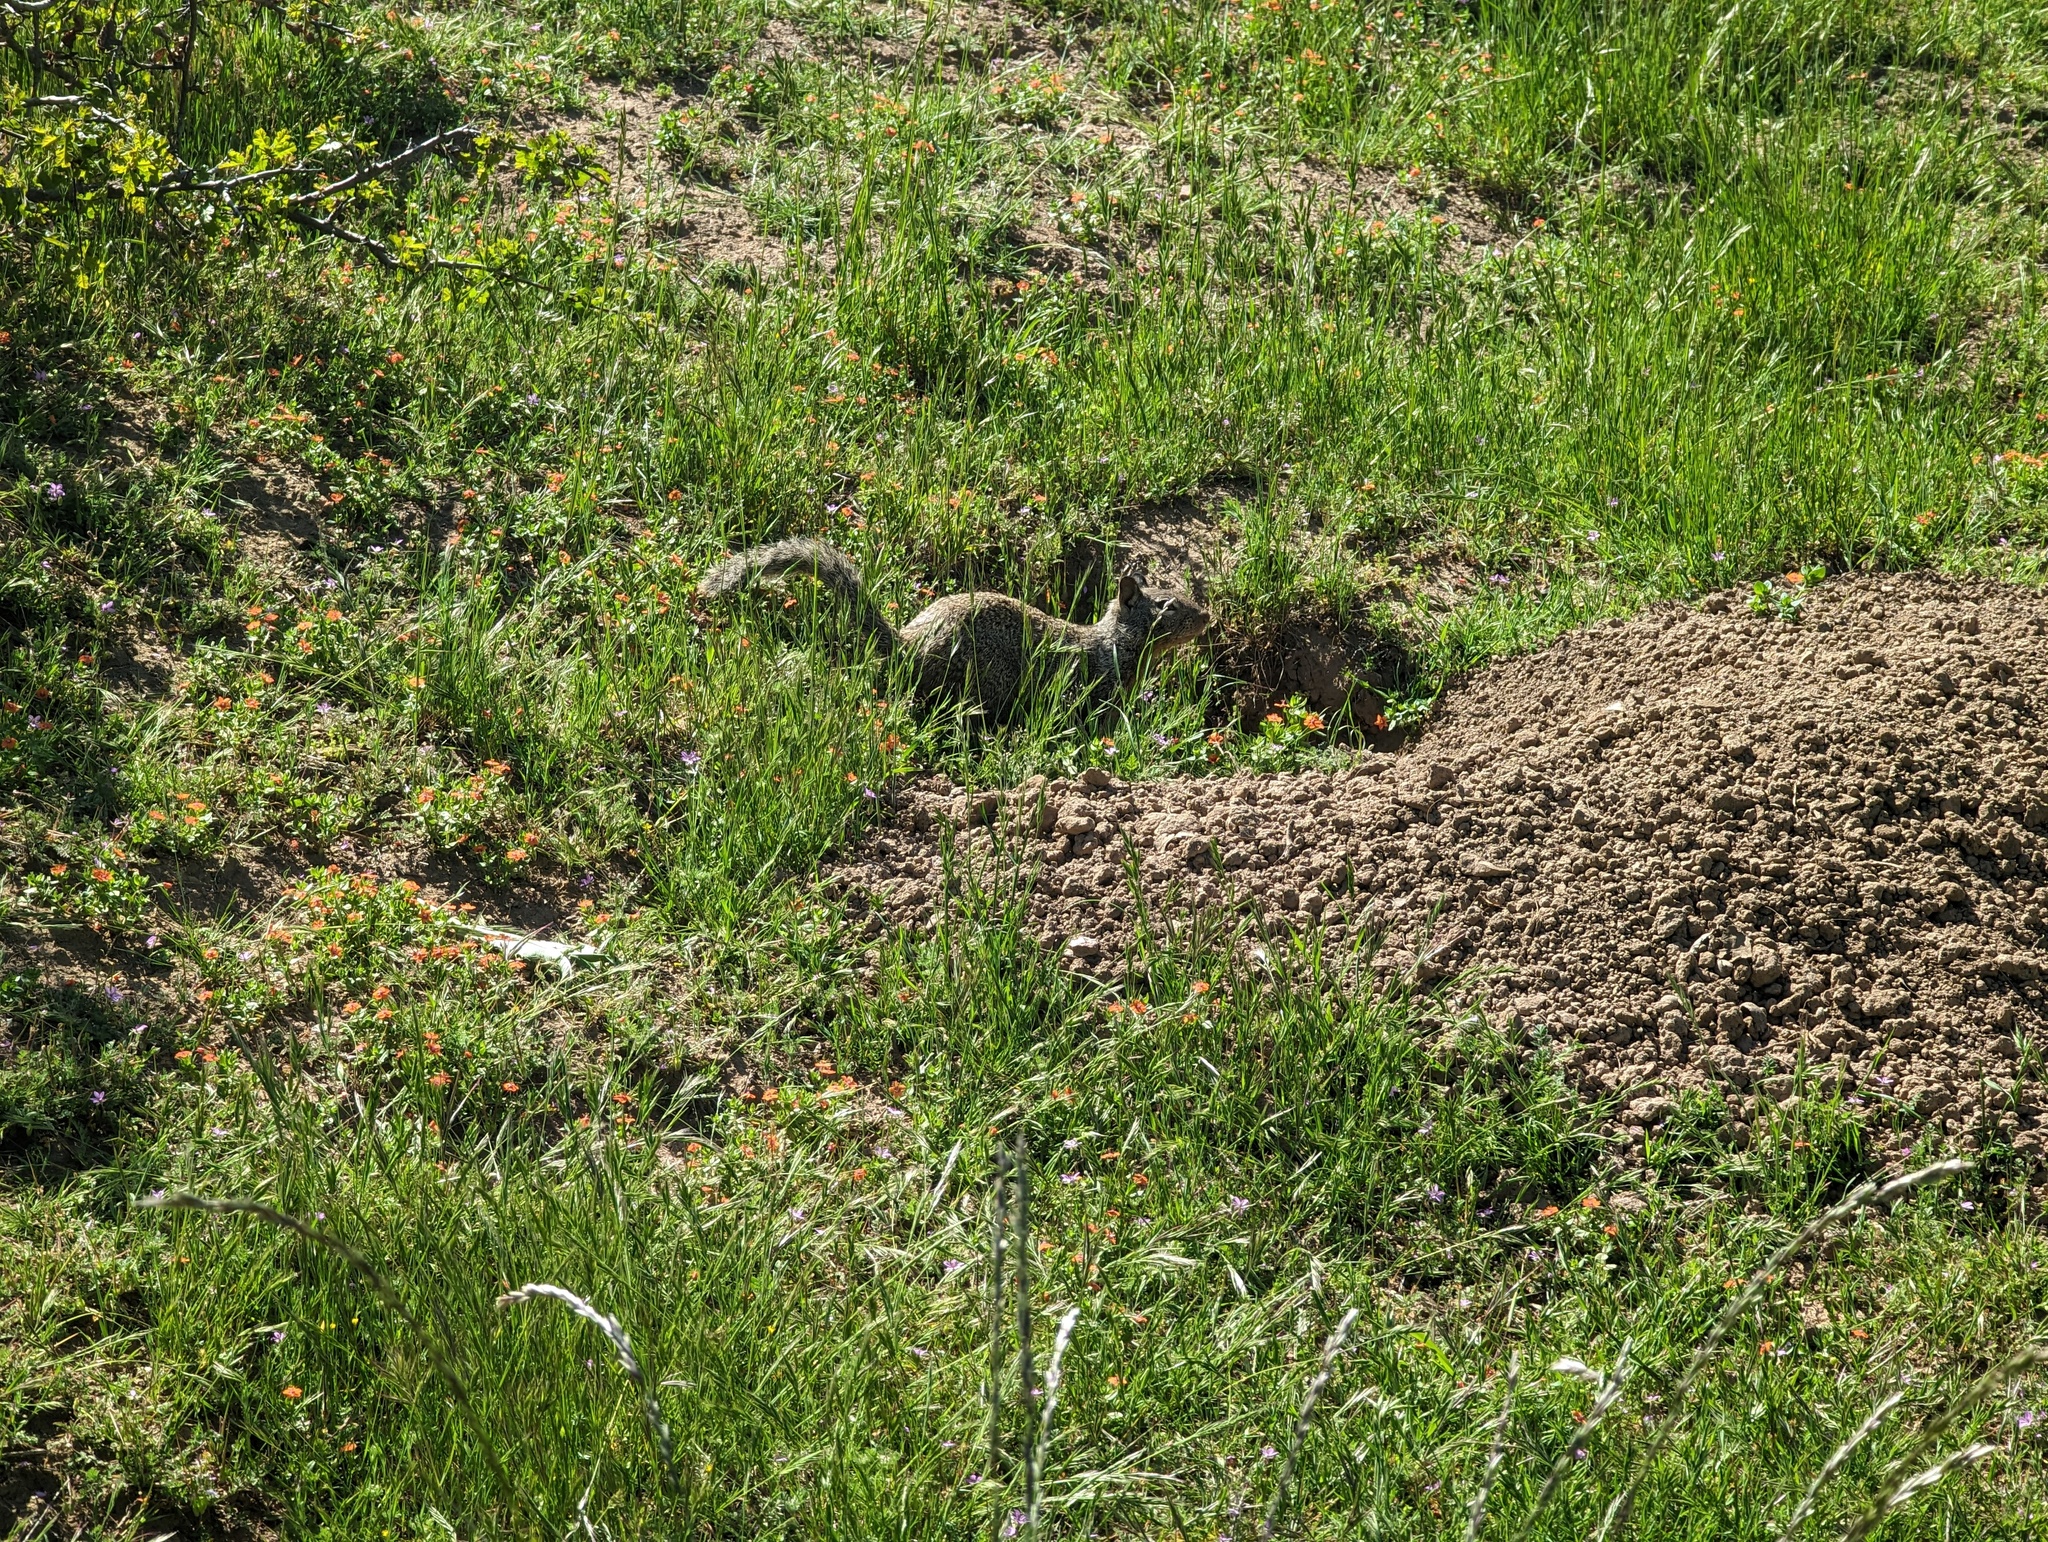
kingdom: Animalia
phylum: Chordata
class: Mammalia
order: Rodentia
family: Sciuridae
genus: Otospermophilus
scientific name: Otospermophilus beecheyi
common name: California ground squirrel
